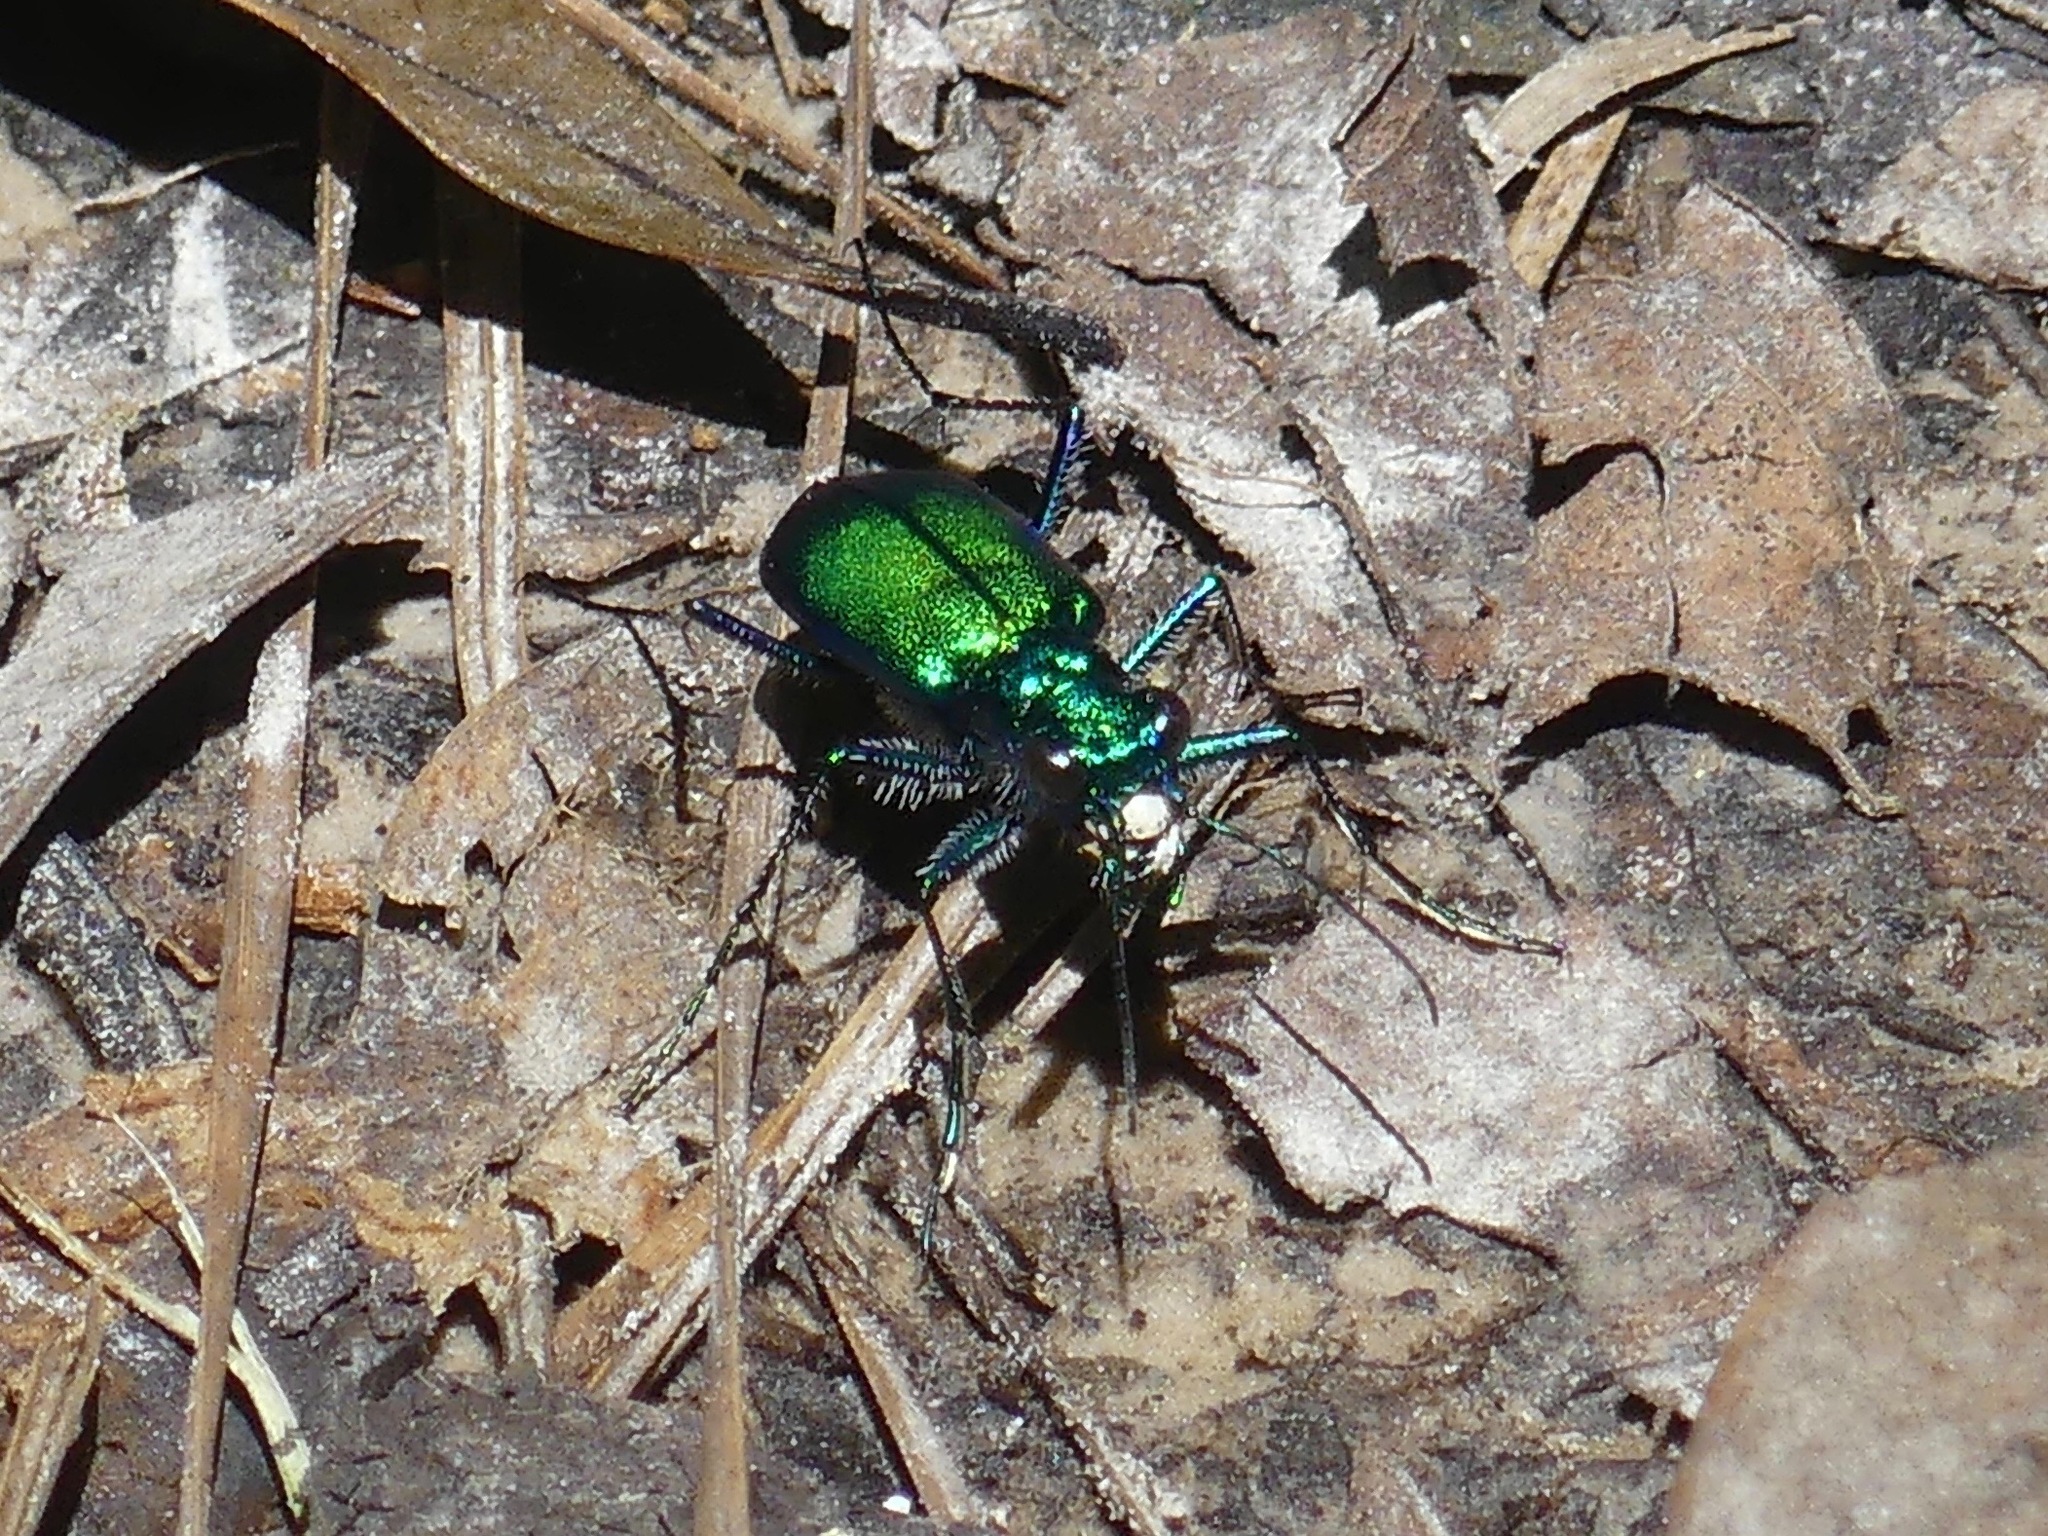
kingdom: Animalia
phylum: Arthropoda
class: Insecta
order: Coleoptera
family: Carabidae
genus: Cicindela
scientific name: Cicindela sexguttata
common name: Six-spotted tiger beetle
